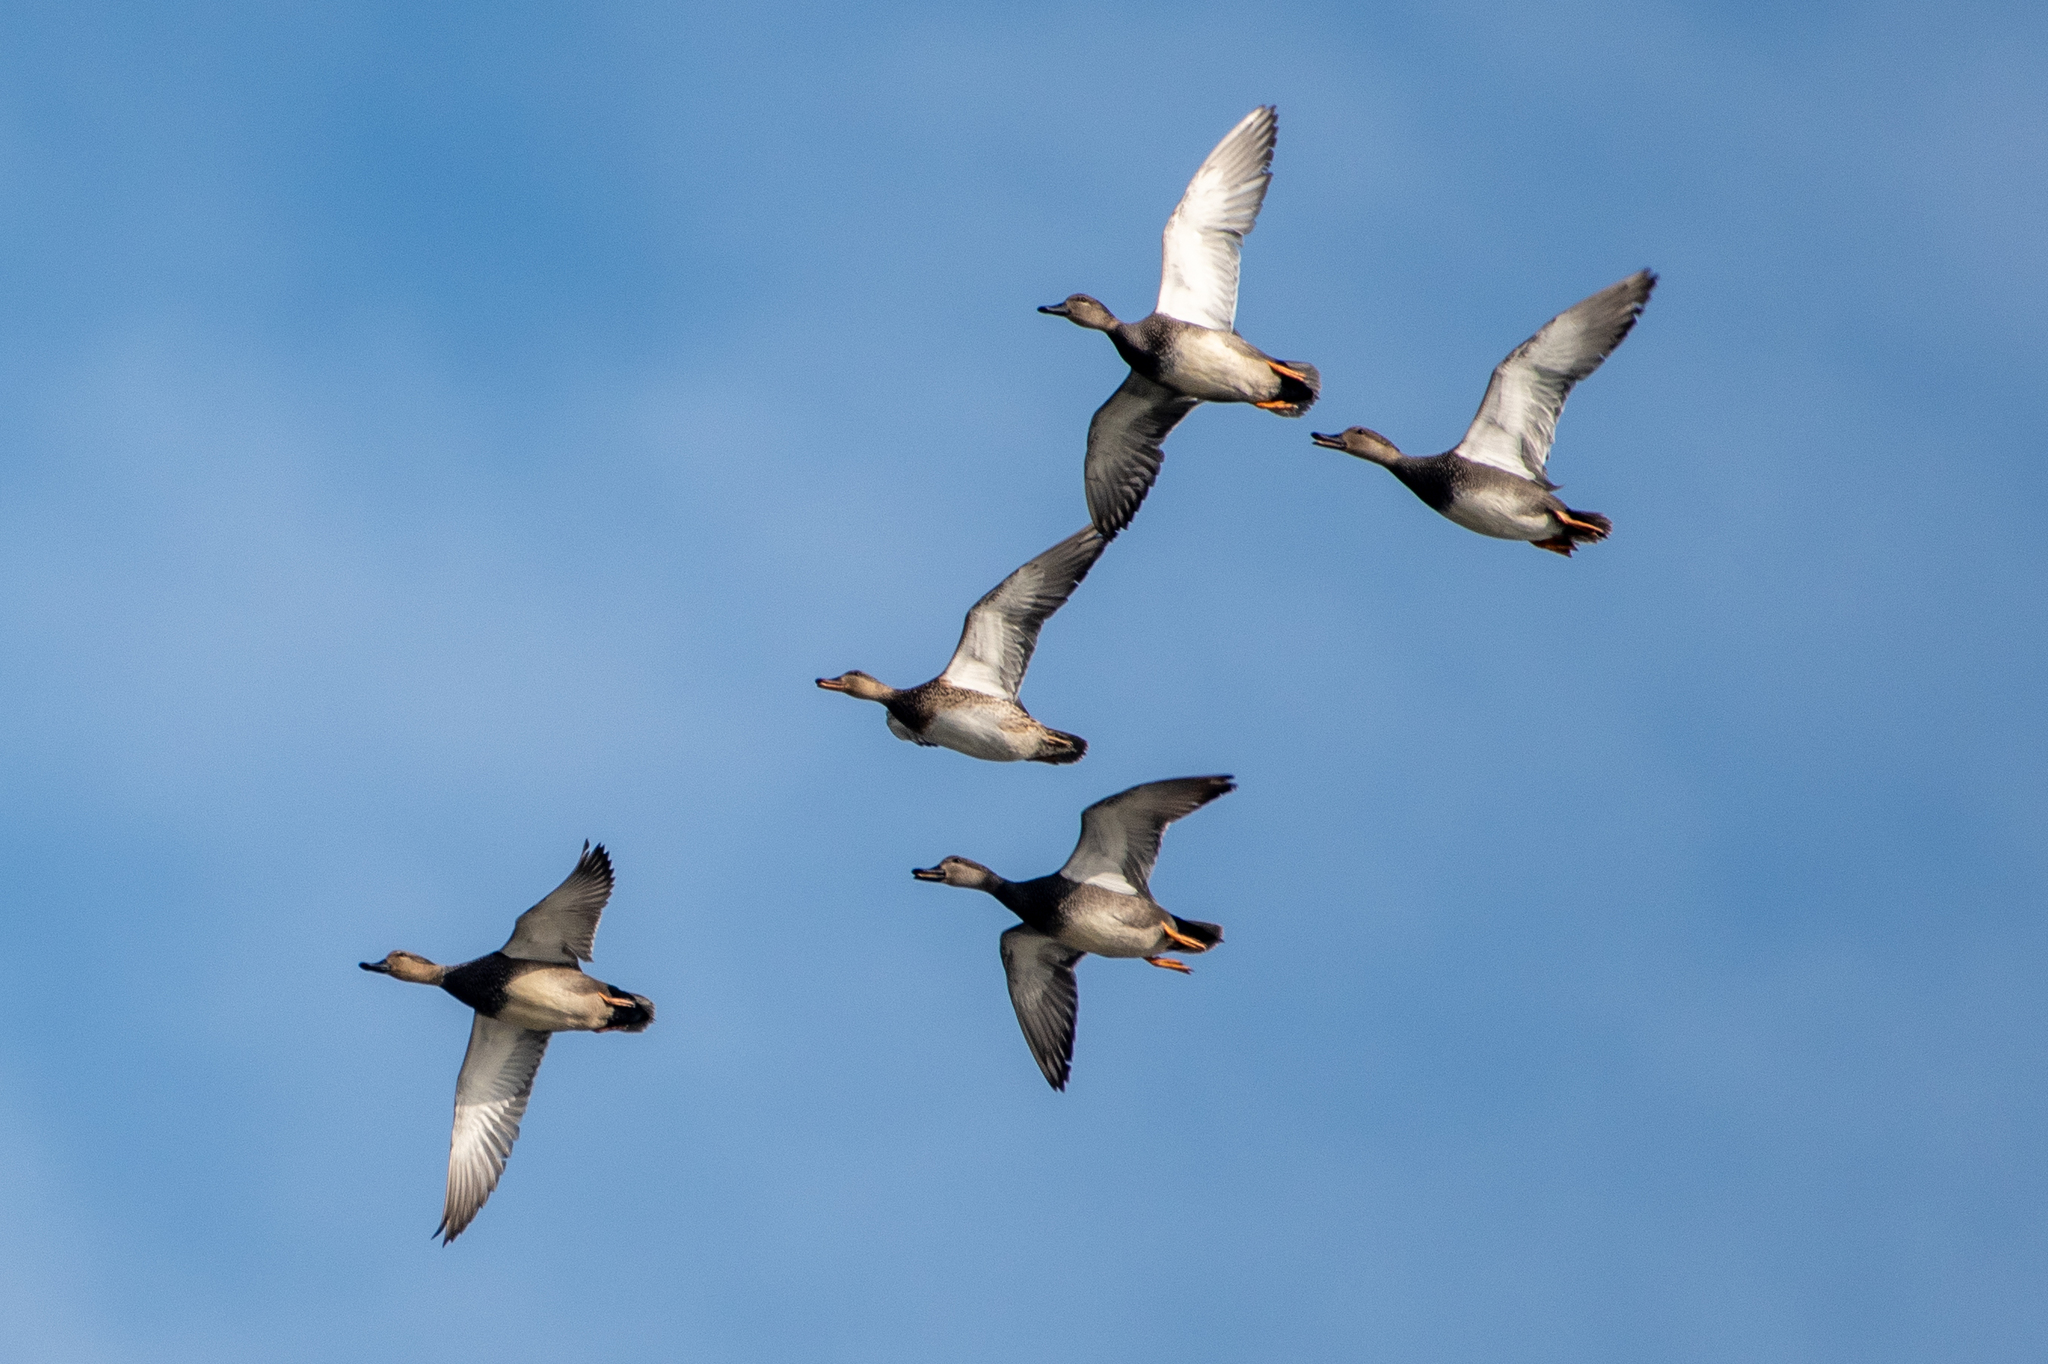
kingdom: Animalia
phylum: Chordata
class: Aves
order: Anseriformes
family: Anatidae
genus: Mareca
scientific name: Mareca strepera
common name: Gadwall
